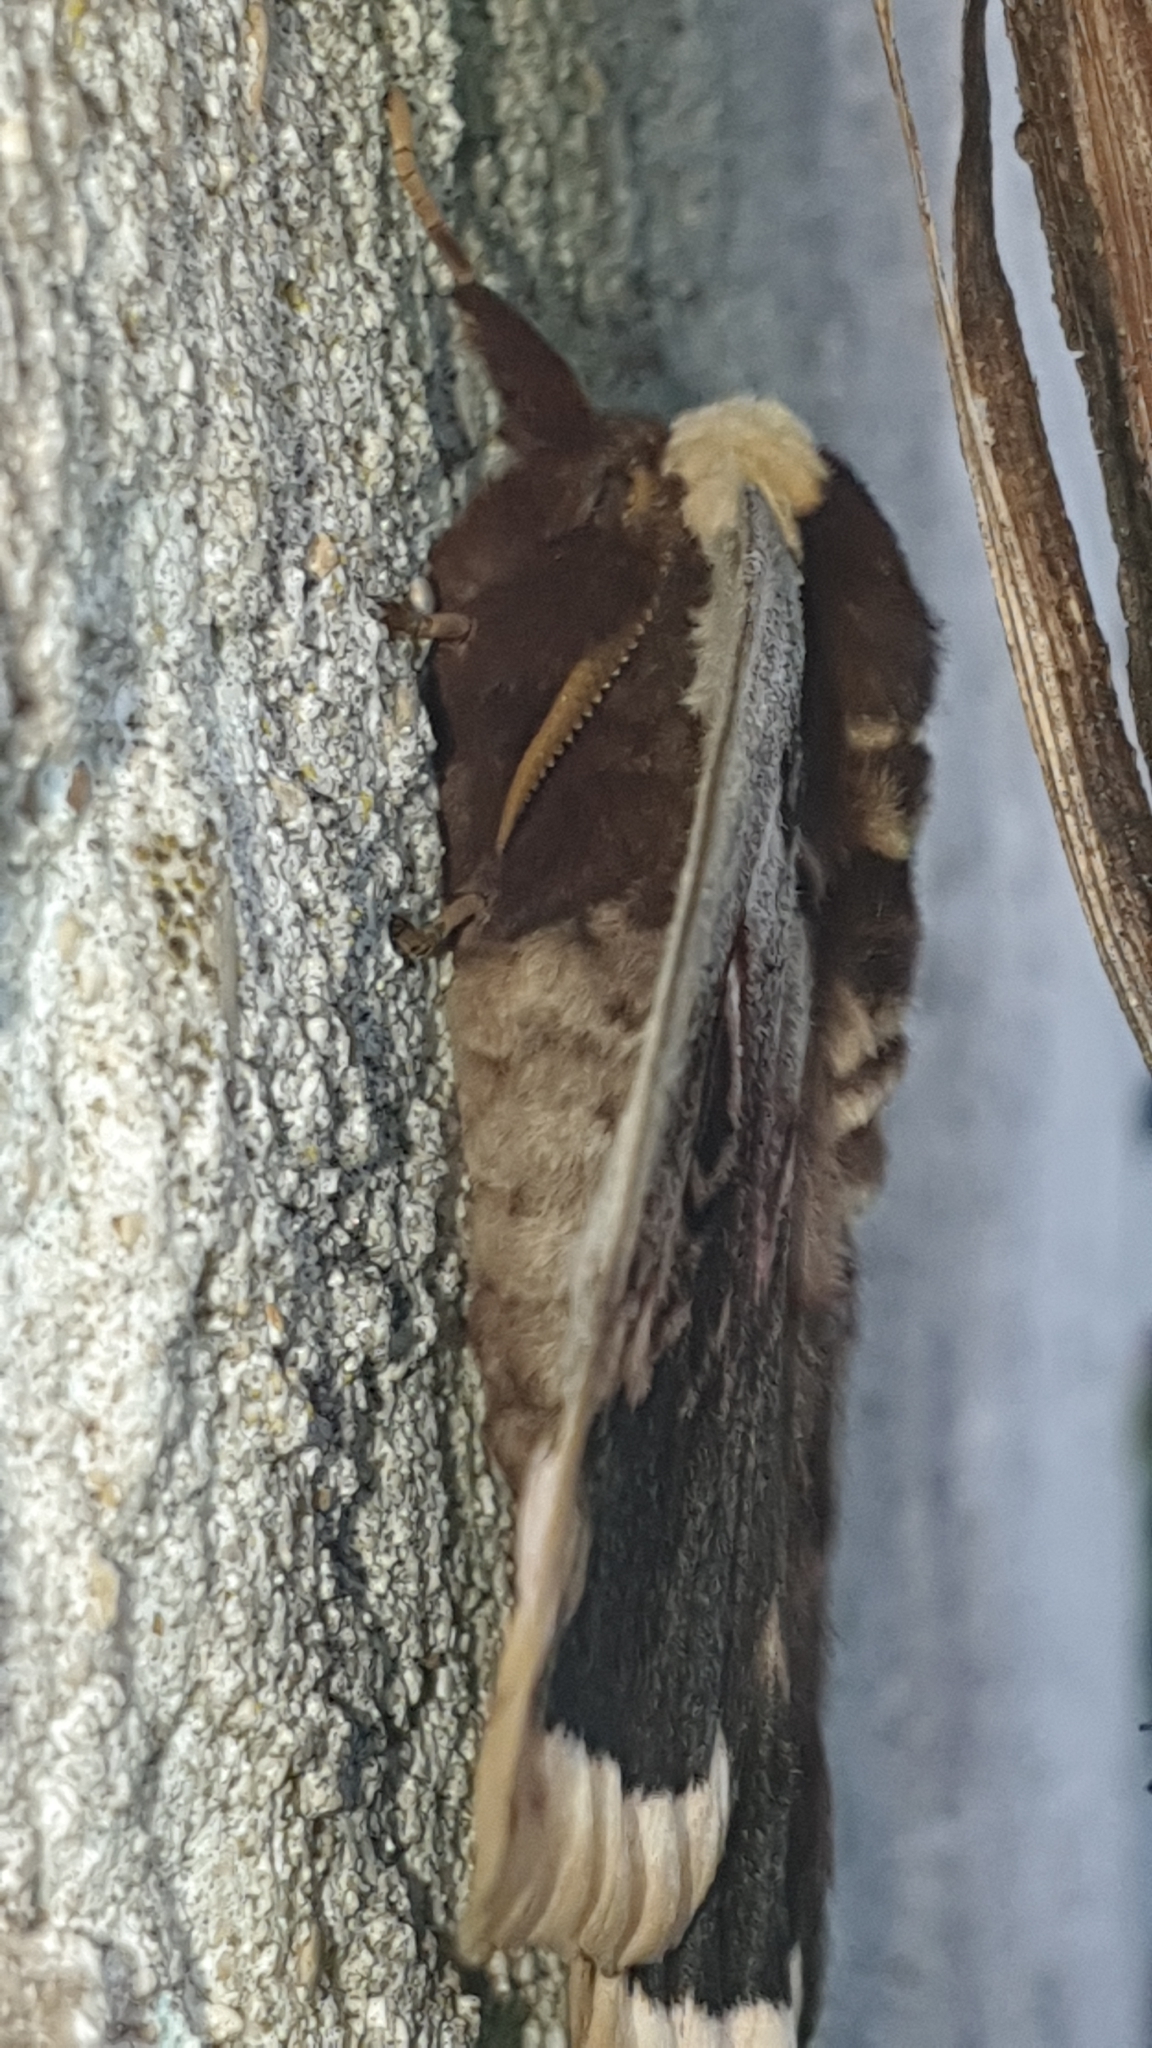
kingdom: Animalia
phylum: Arthropoda
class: Insecta
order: Lepidoptera
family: Saturniidae
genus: Saturnia
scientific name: Saturnia pyri
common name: Great peacock moth
